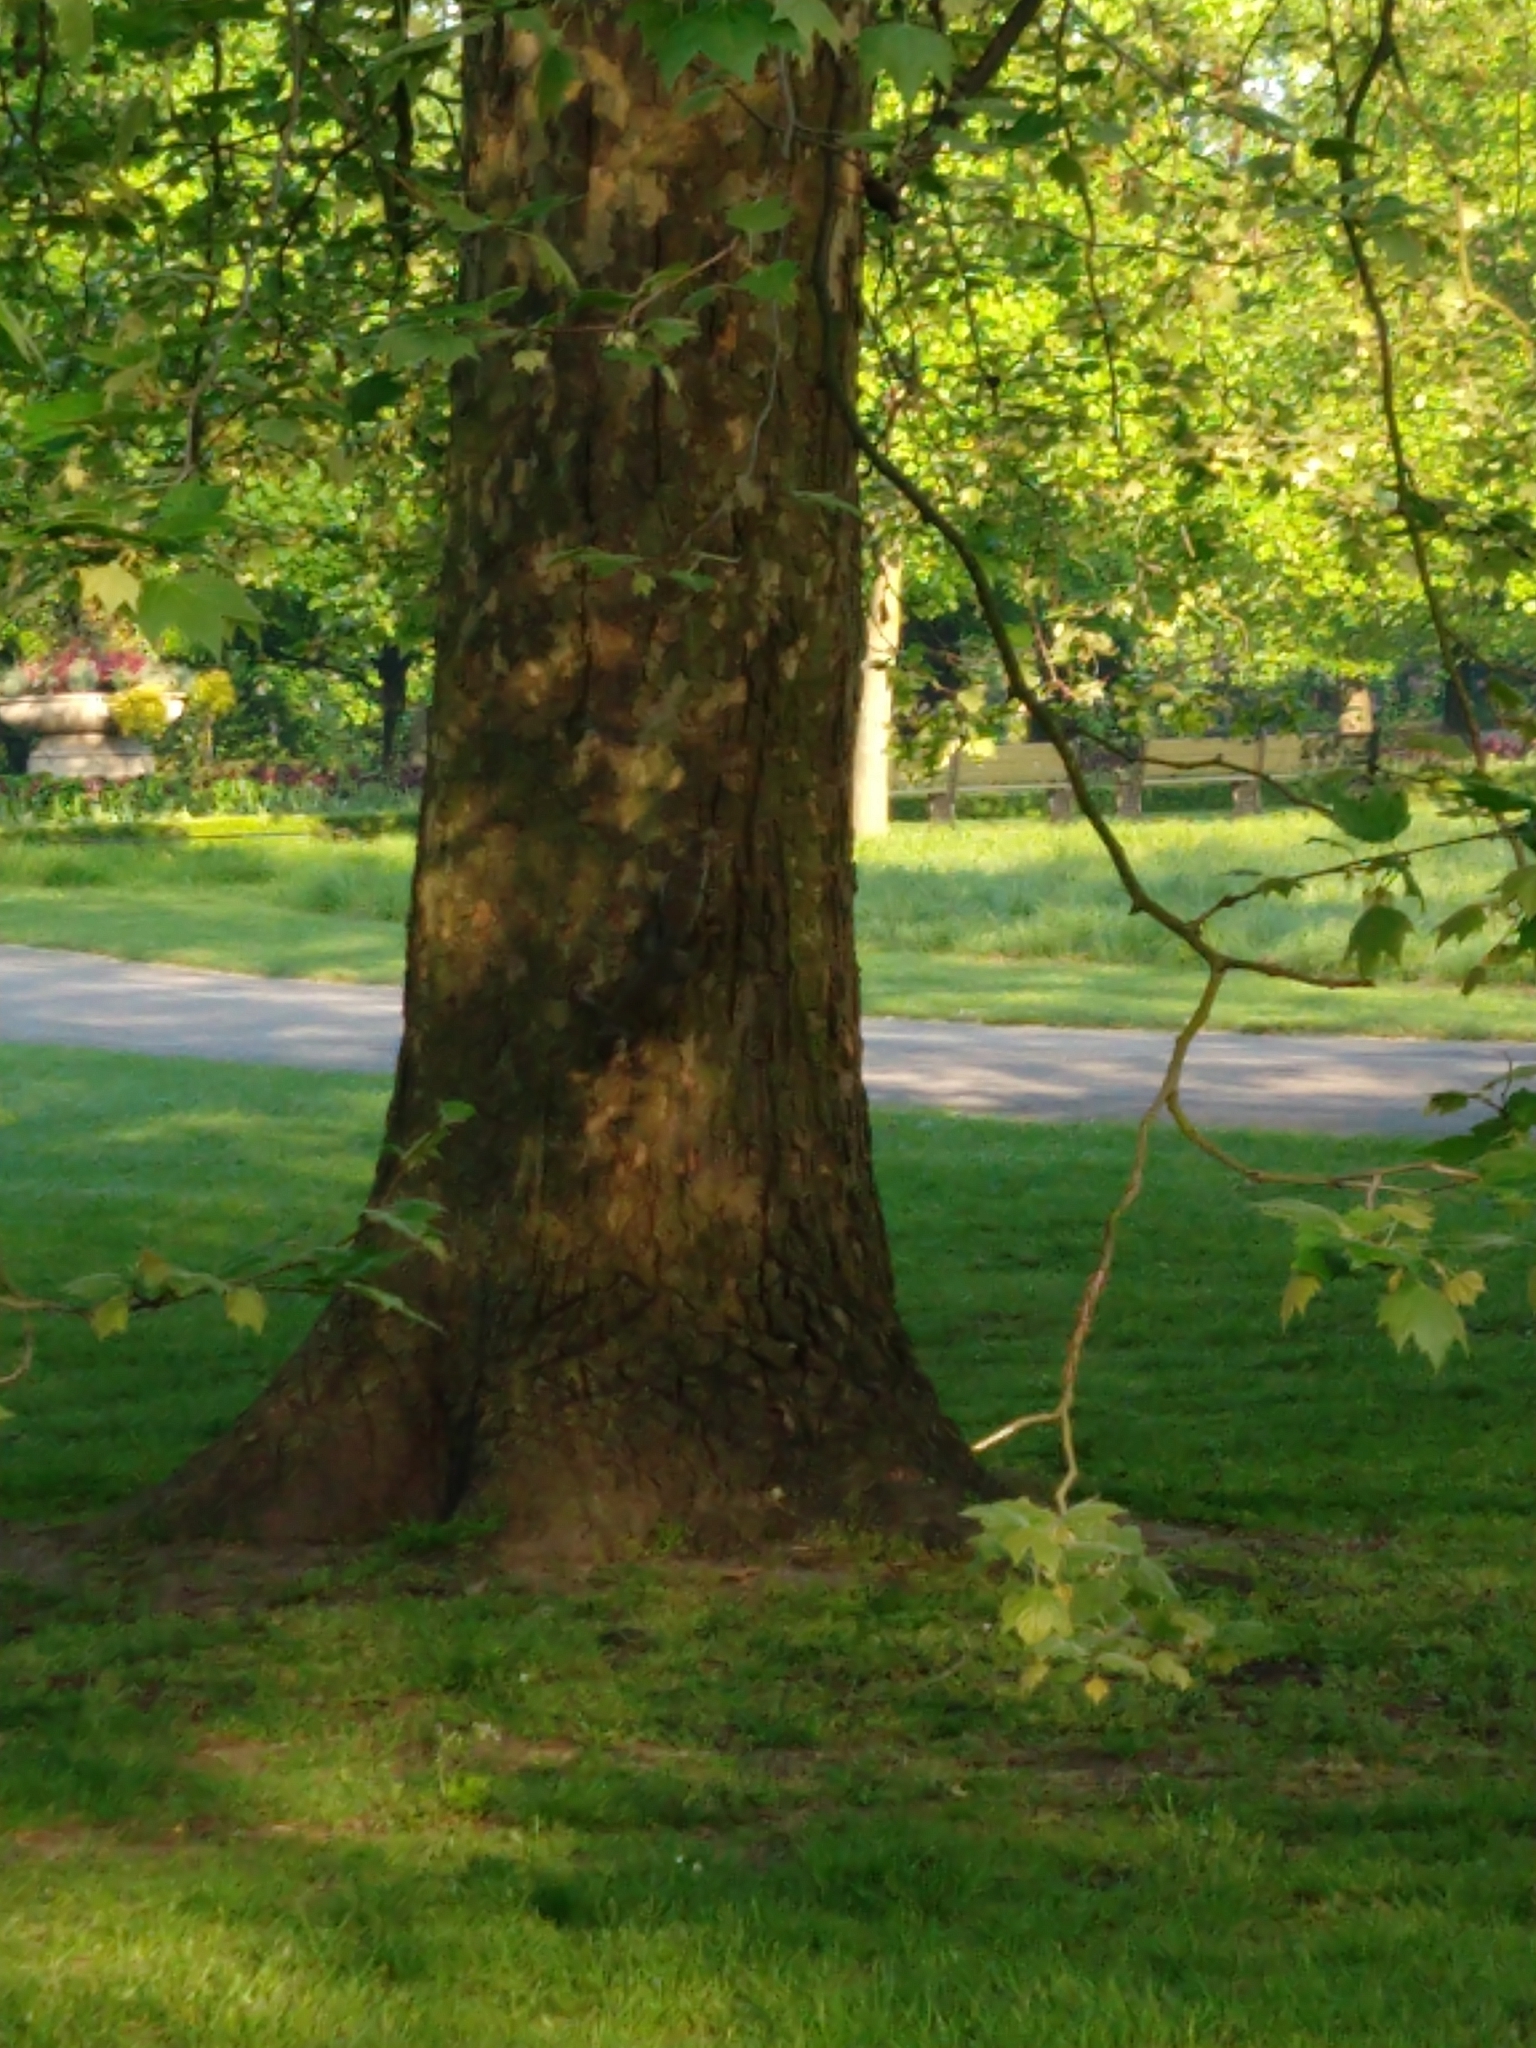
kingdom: Animalia
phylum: Chordata
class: Mammalia
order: Rodentia
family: Sciuridae
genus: Sciurus
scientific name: Sciurus carolinensis
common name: Eastern gray squirrel
